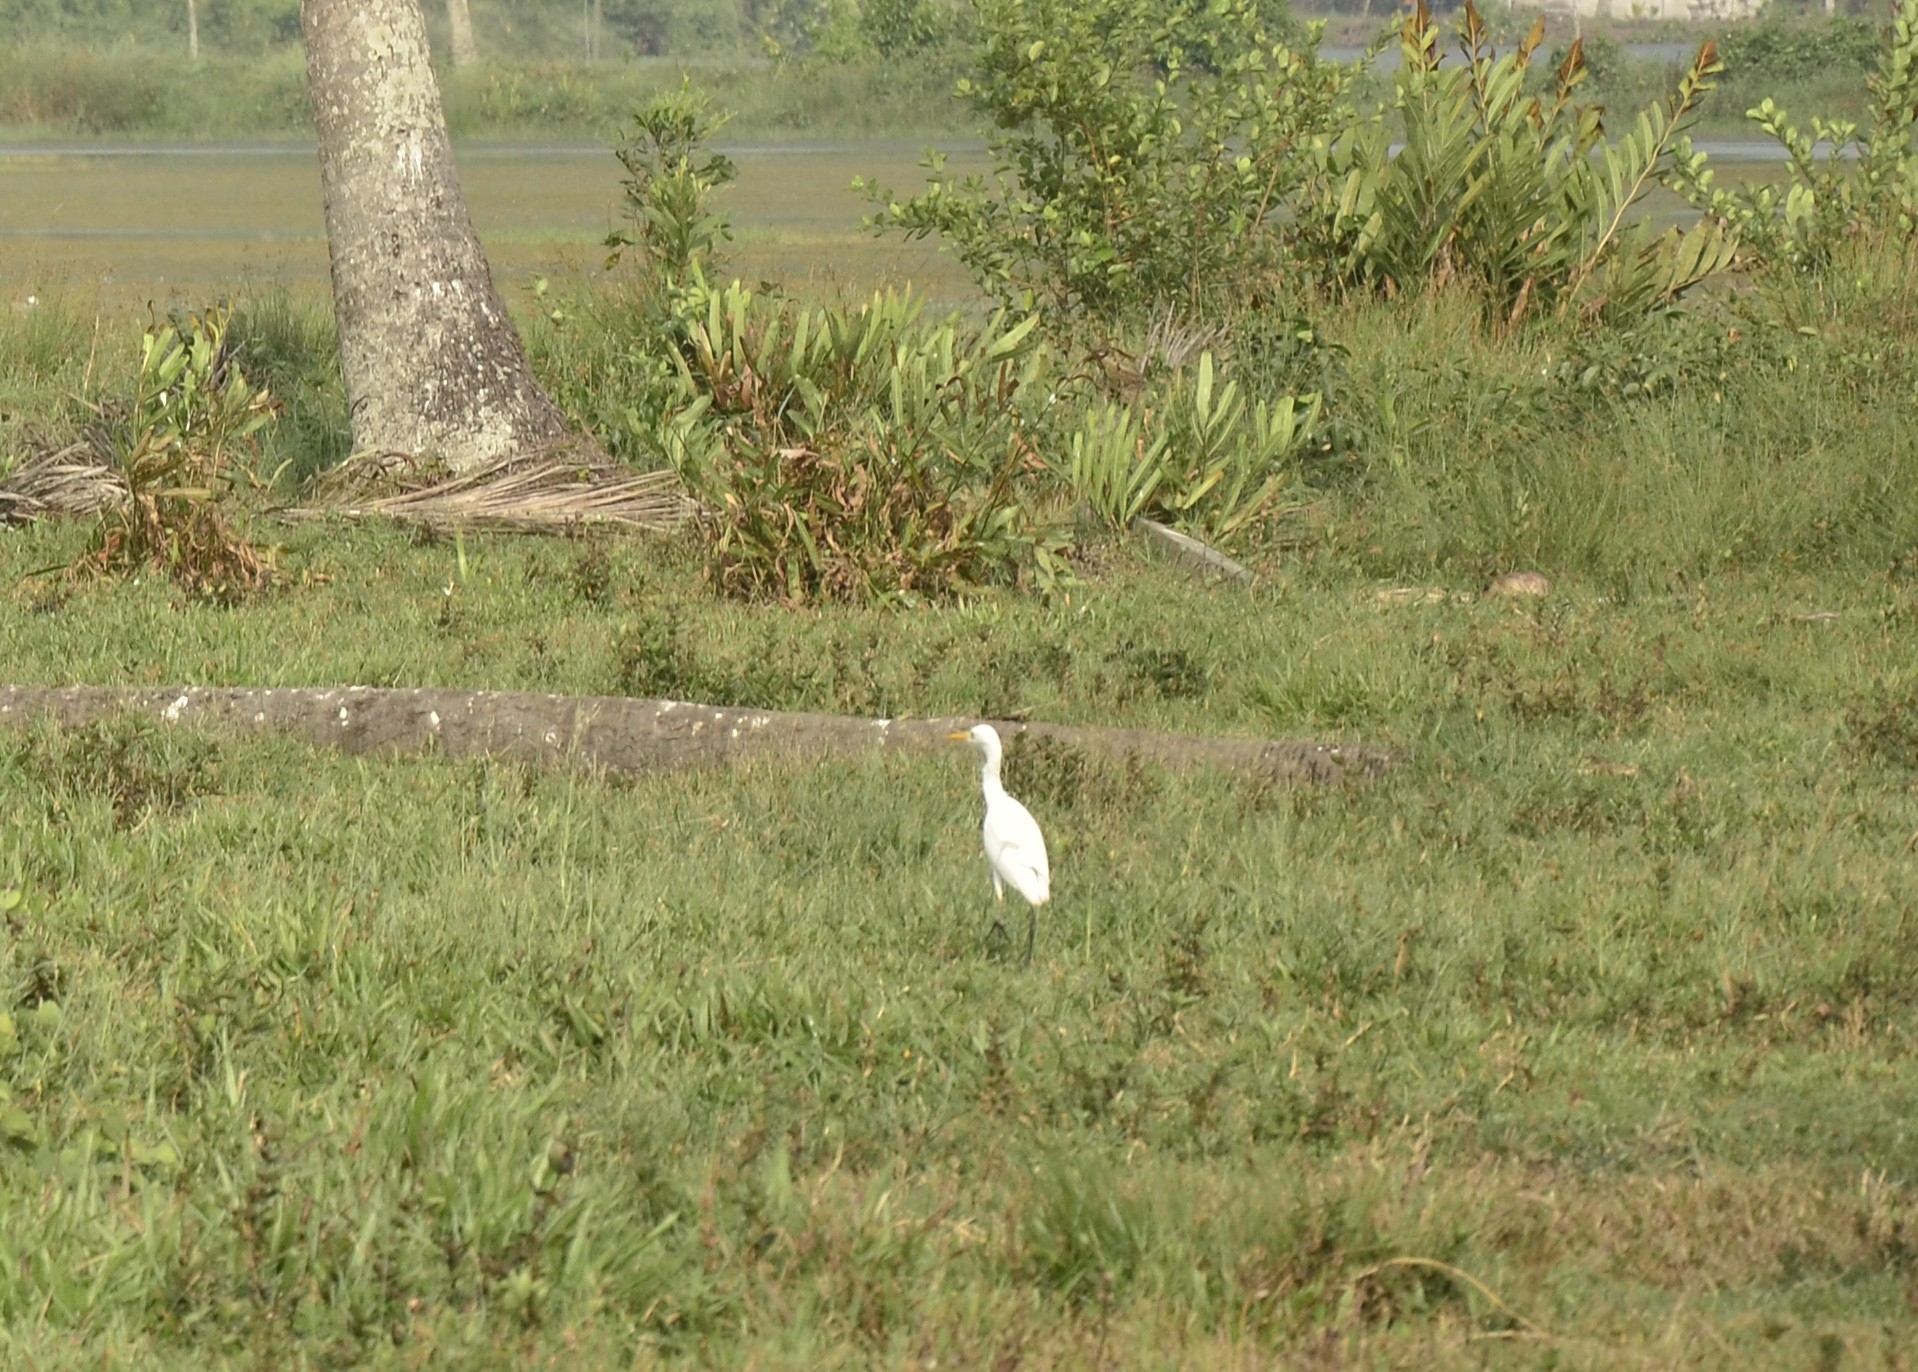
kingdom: Animalia
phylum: Chordata
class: Aves
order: Pelecaniformes
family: Ardeidae
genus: Bubulcus
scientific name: Bubulcus coromandus
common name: Eastern cattle egret
